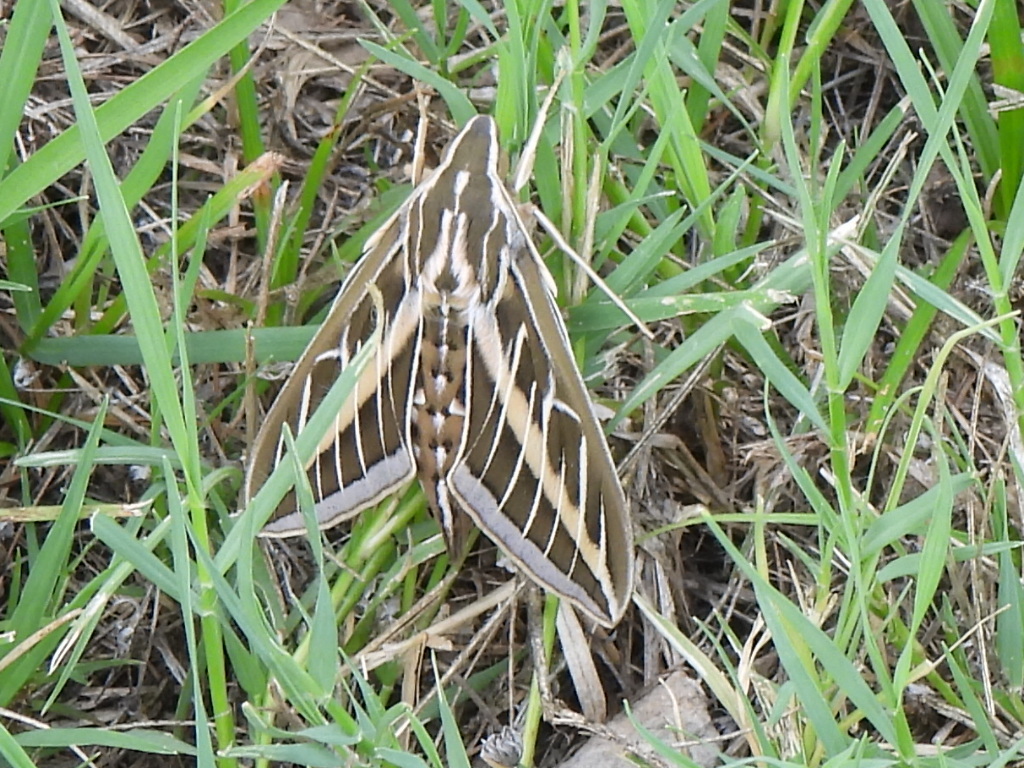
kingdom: Animalia
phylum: Arthropoda
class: Insecta
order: Lepidoptera
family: Sphingidae
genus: Hyles
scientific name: Hyles lineata
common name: White-lined sphinx
